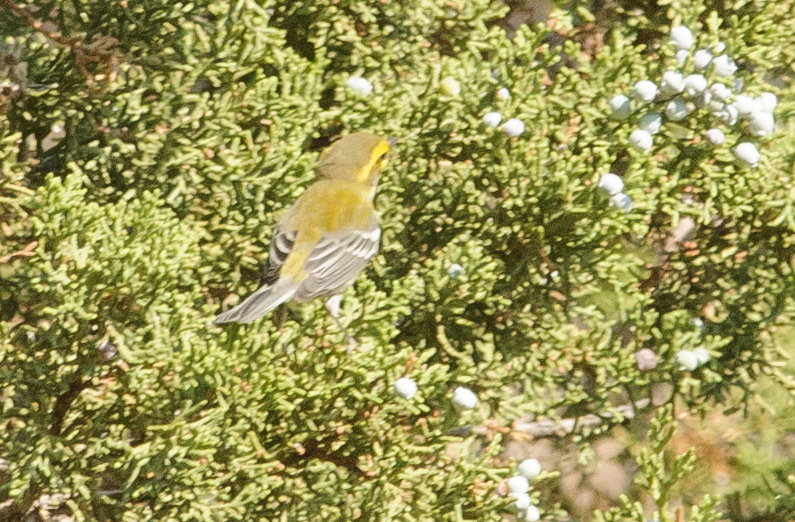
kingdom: Animalia
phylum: Chordata
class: Aves
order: Passeriformes
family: Parulidae
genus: Setophaga
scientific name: Setophaga townsendi
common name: Townsend's warbler
